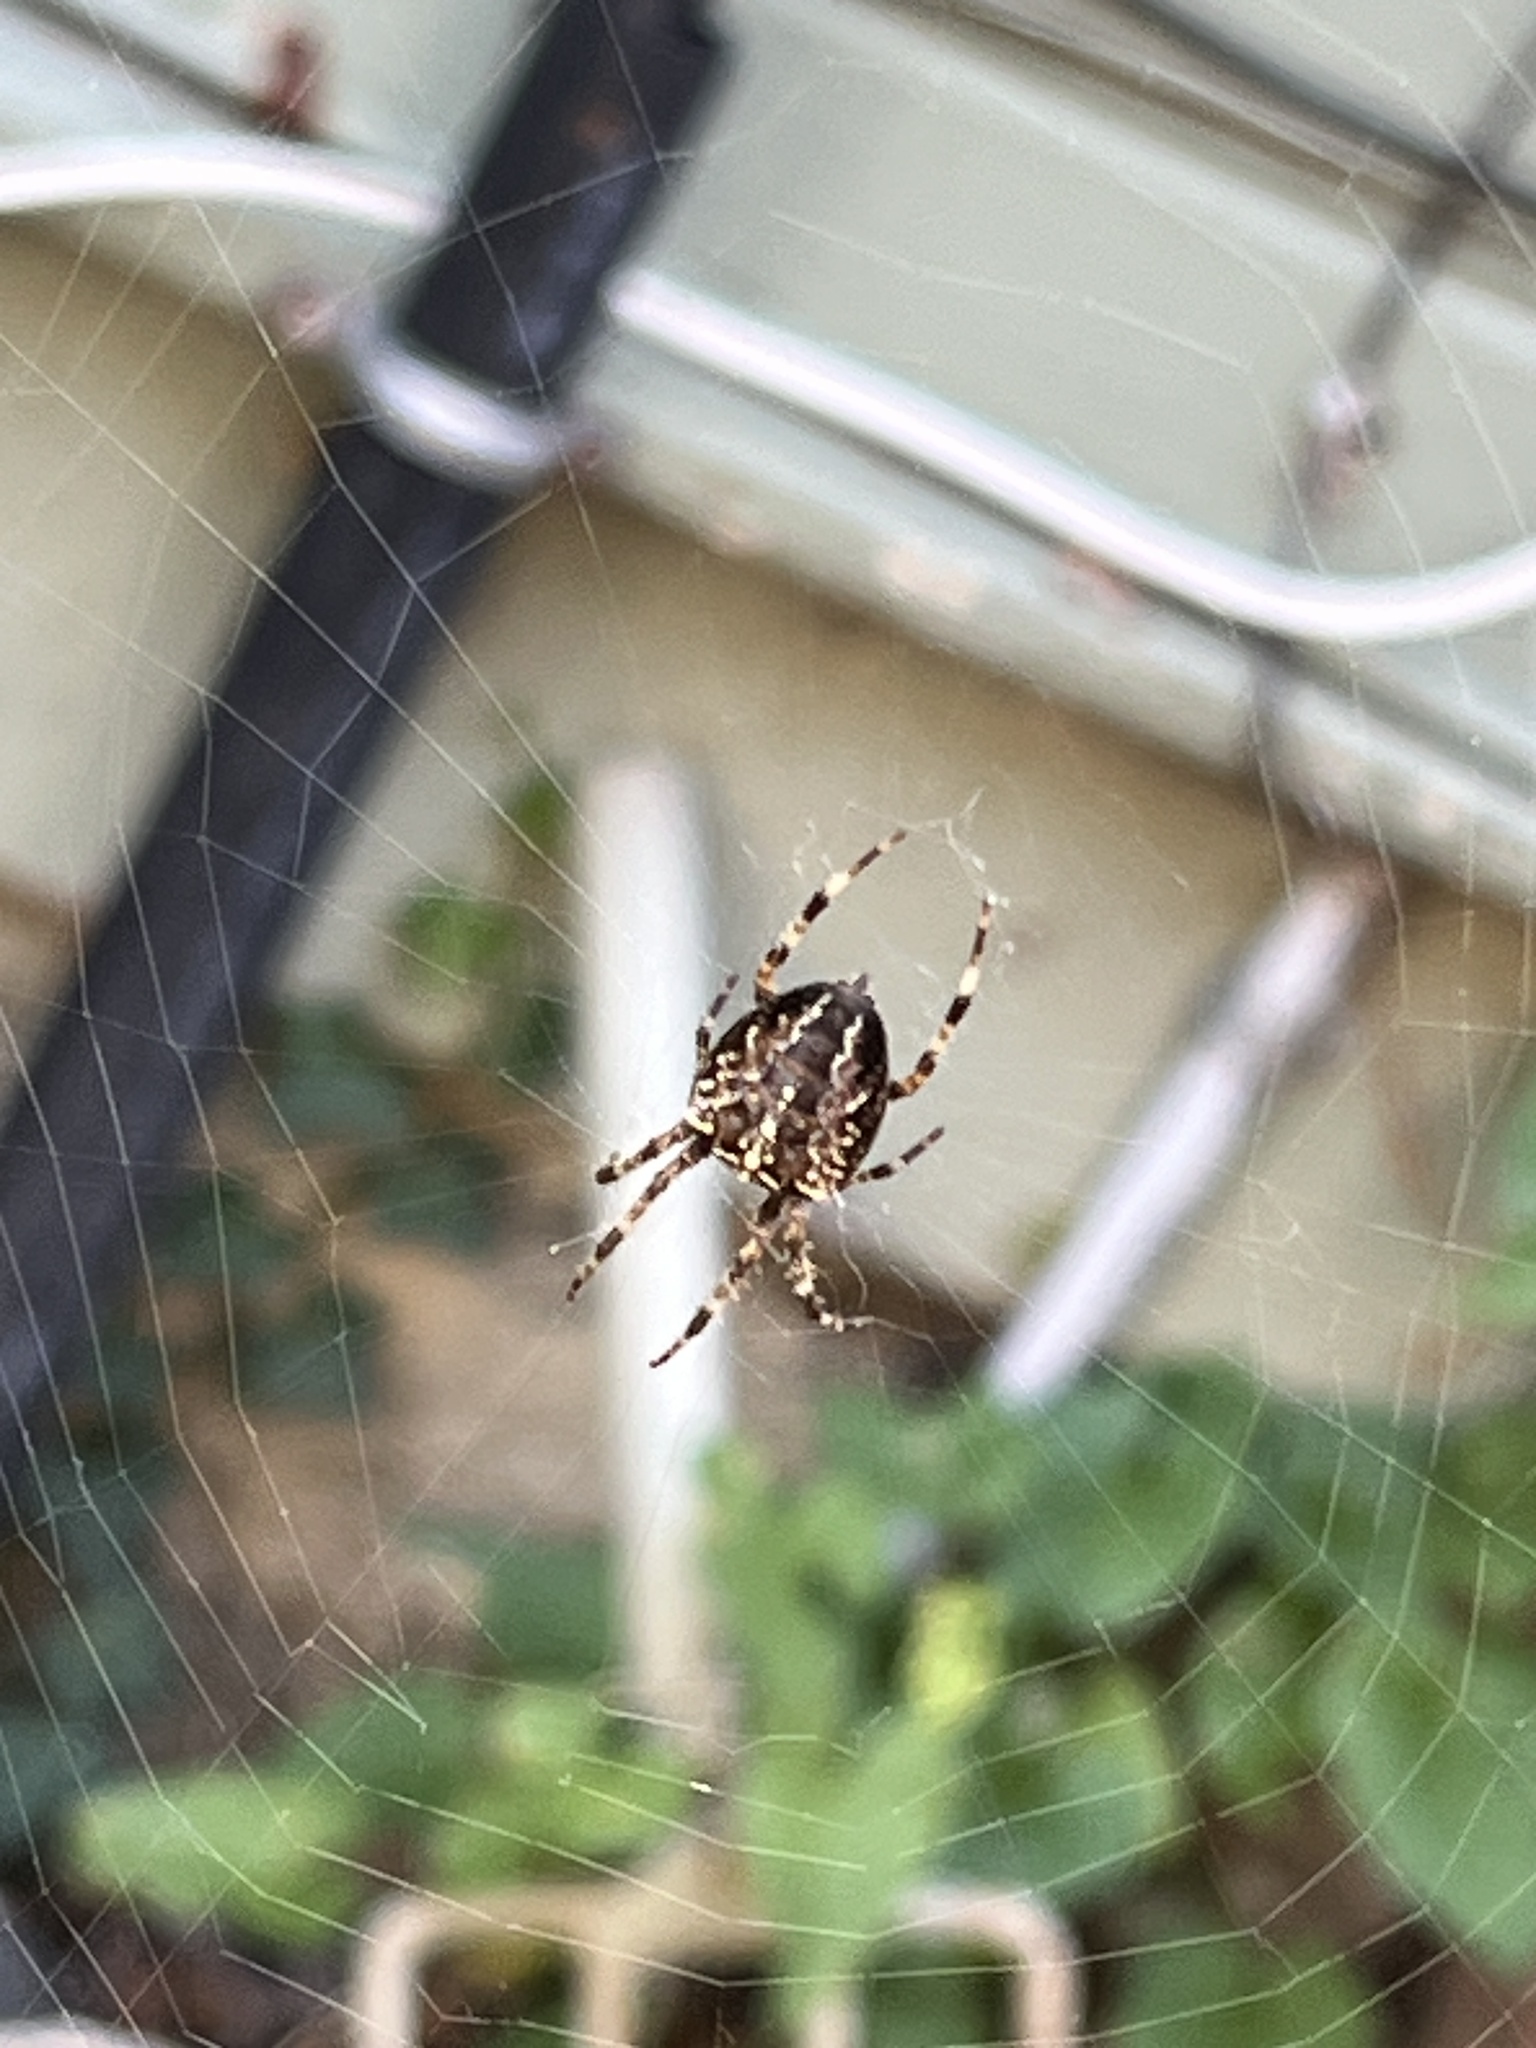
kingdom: Animalia
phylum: Arthropoda
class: Arachnida
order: Araneae
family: Araneidae
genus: Araneus
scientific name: Araneus diadematus
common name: Cross orbweaver
